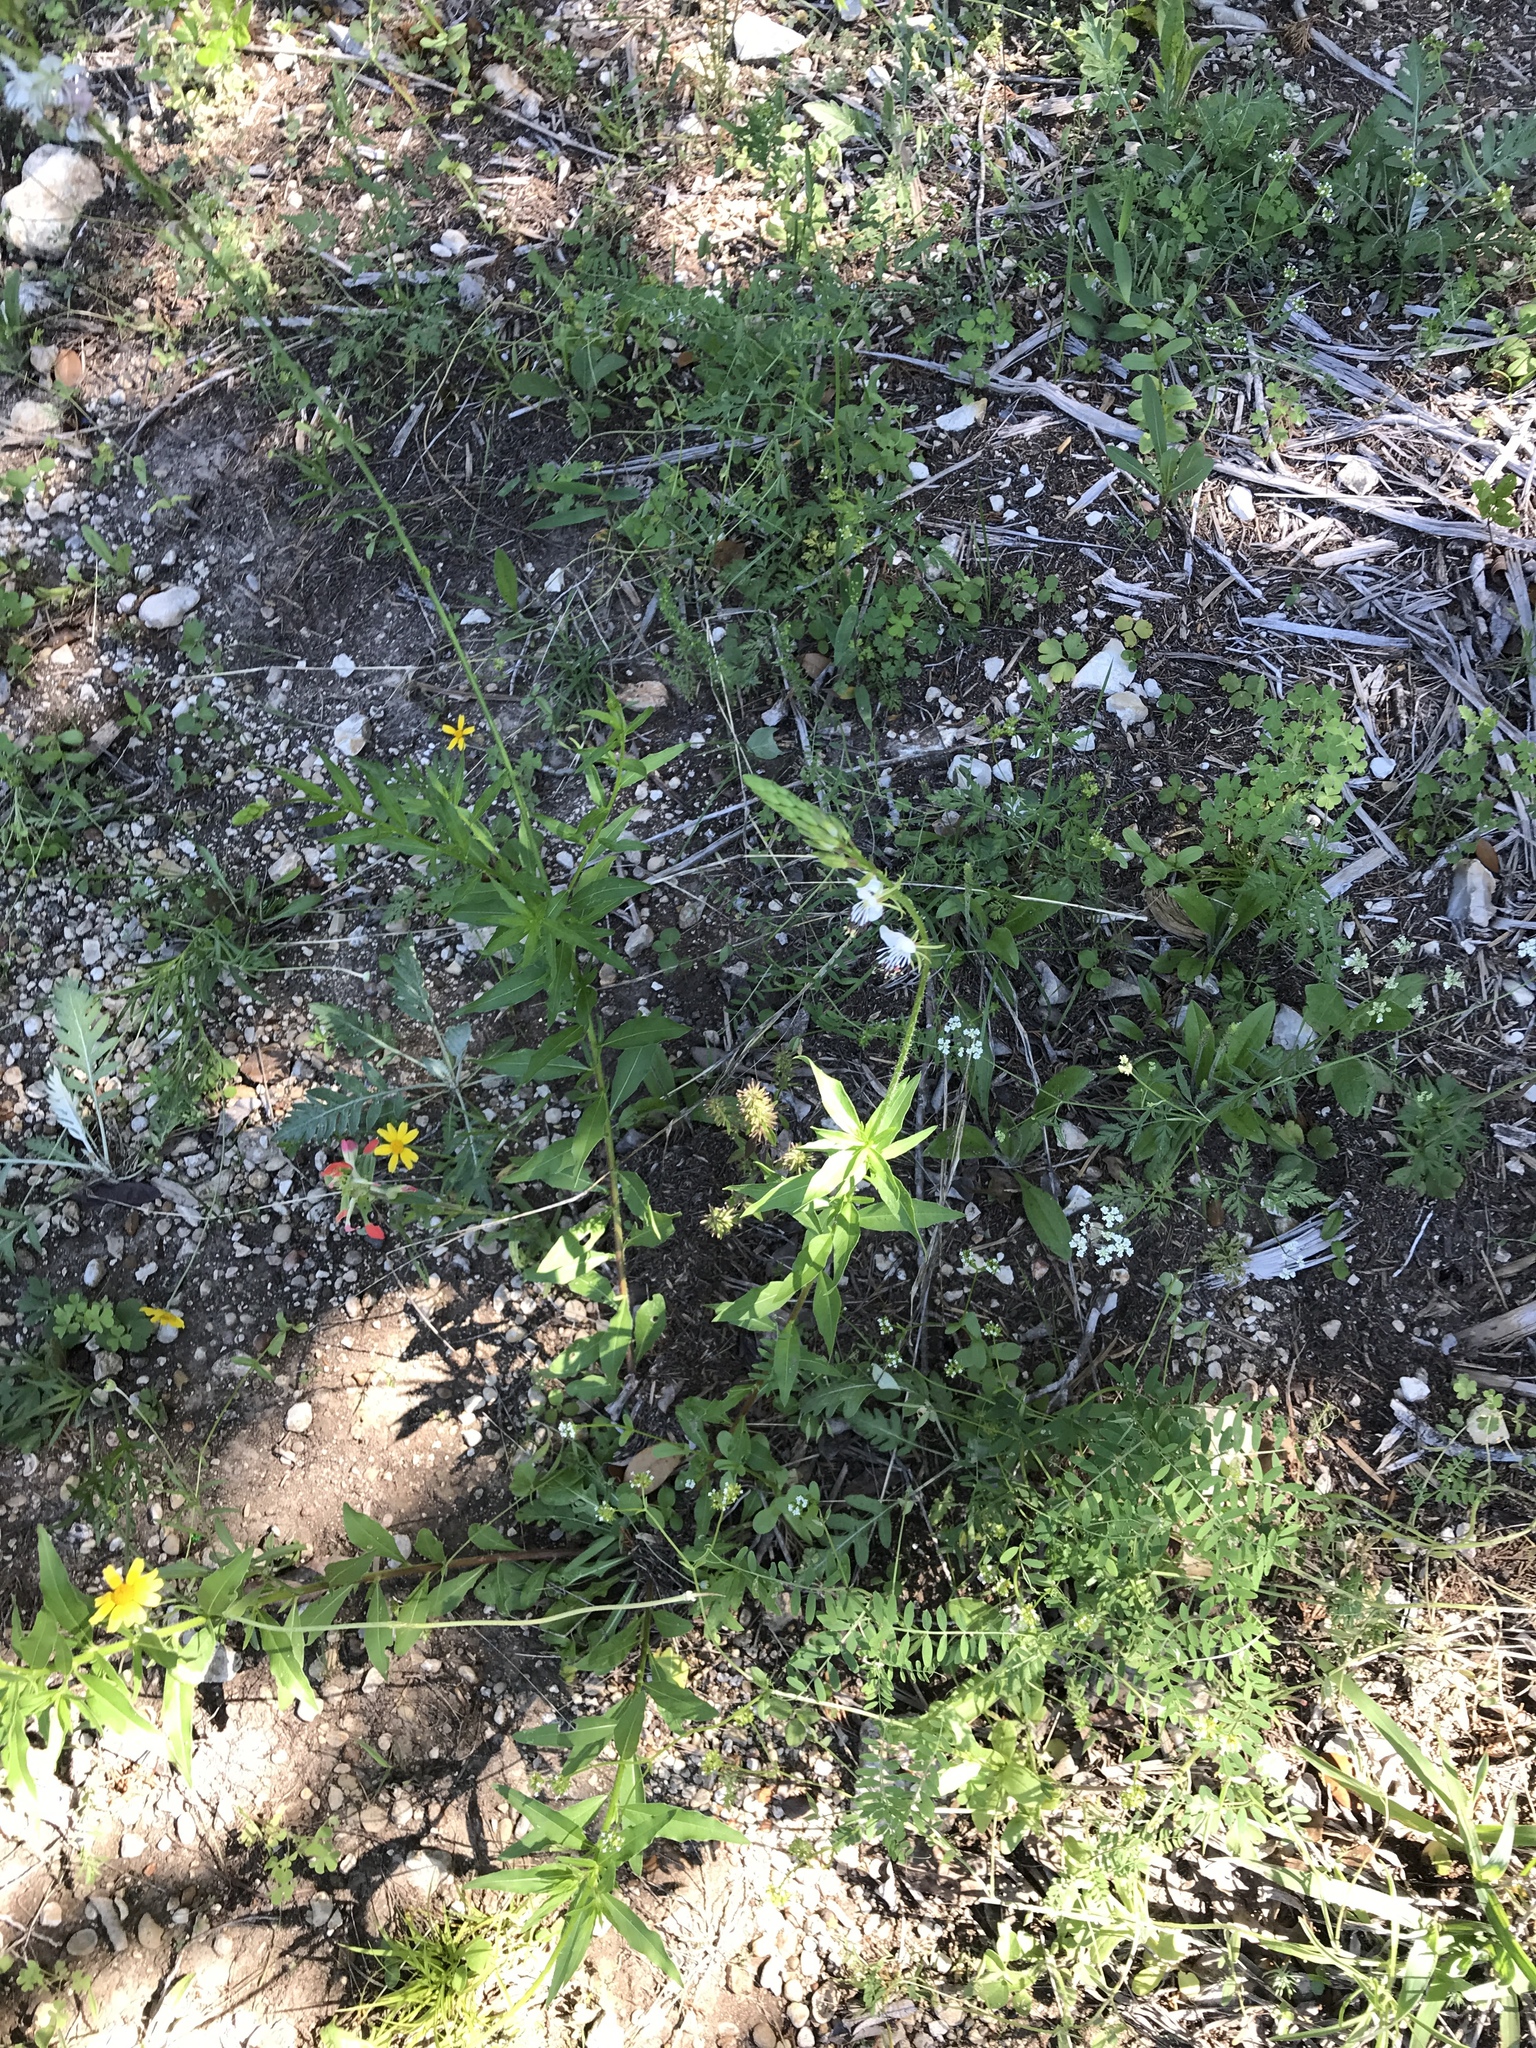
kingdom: Plantae
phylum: Tracheophyta
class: Magnoliopsida
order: Myrtales
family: Onagraceae
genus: Oenothera
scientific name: Oenothera suffulta
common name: Kisses
